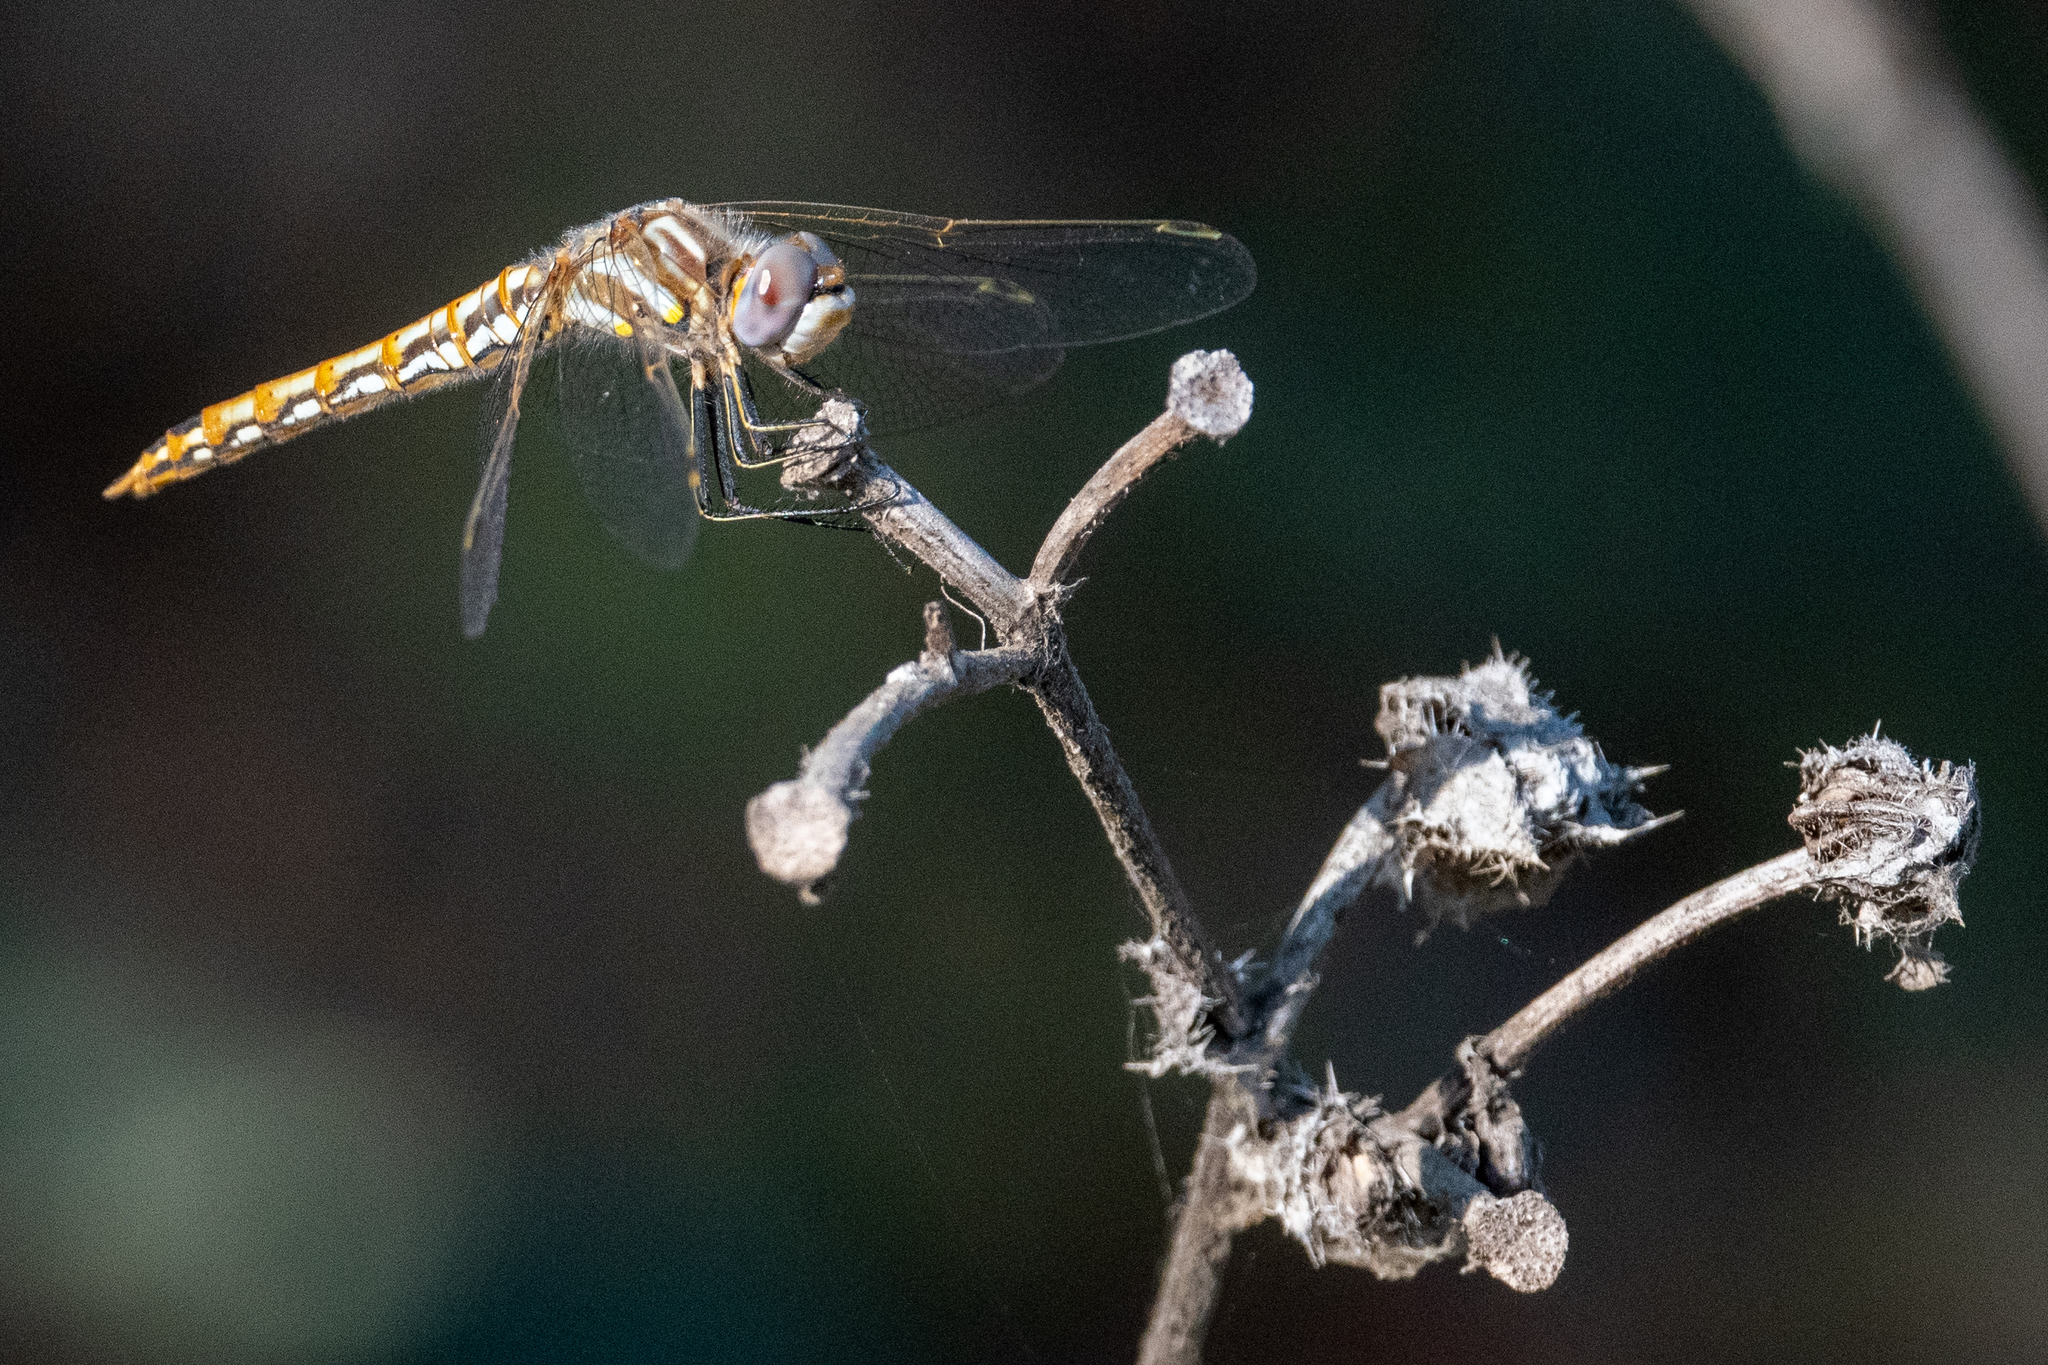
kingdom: Animalia
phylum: Arthropoda
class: Insecta
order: Odonata
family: Libellulidae
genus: Sympetrum
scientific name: Sympetrum corruptum
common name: Variegated meadowhawk
